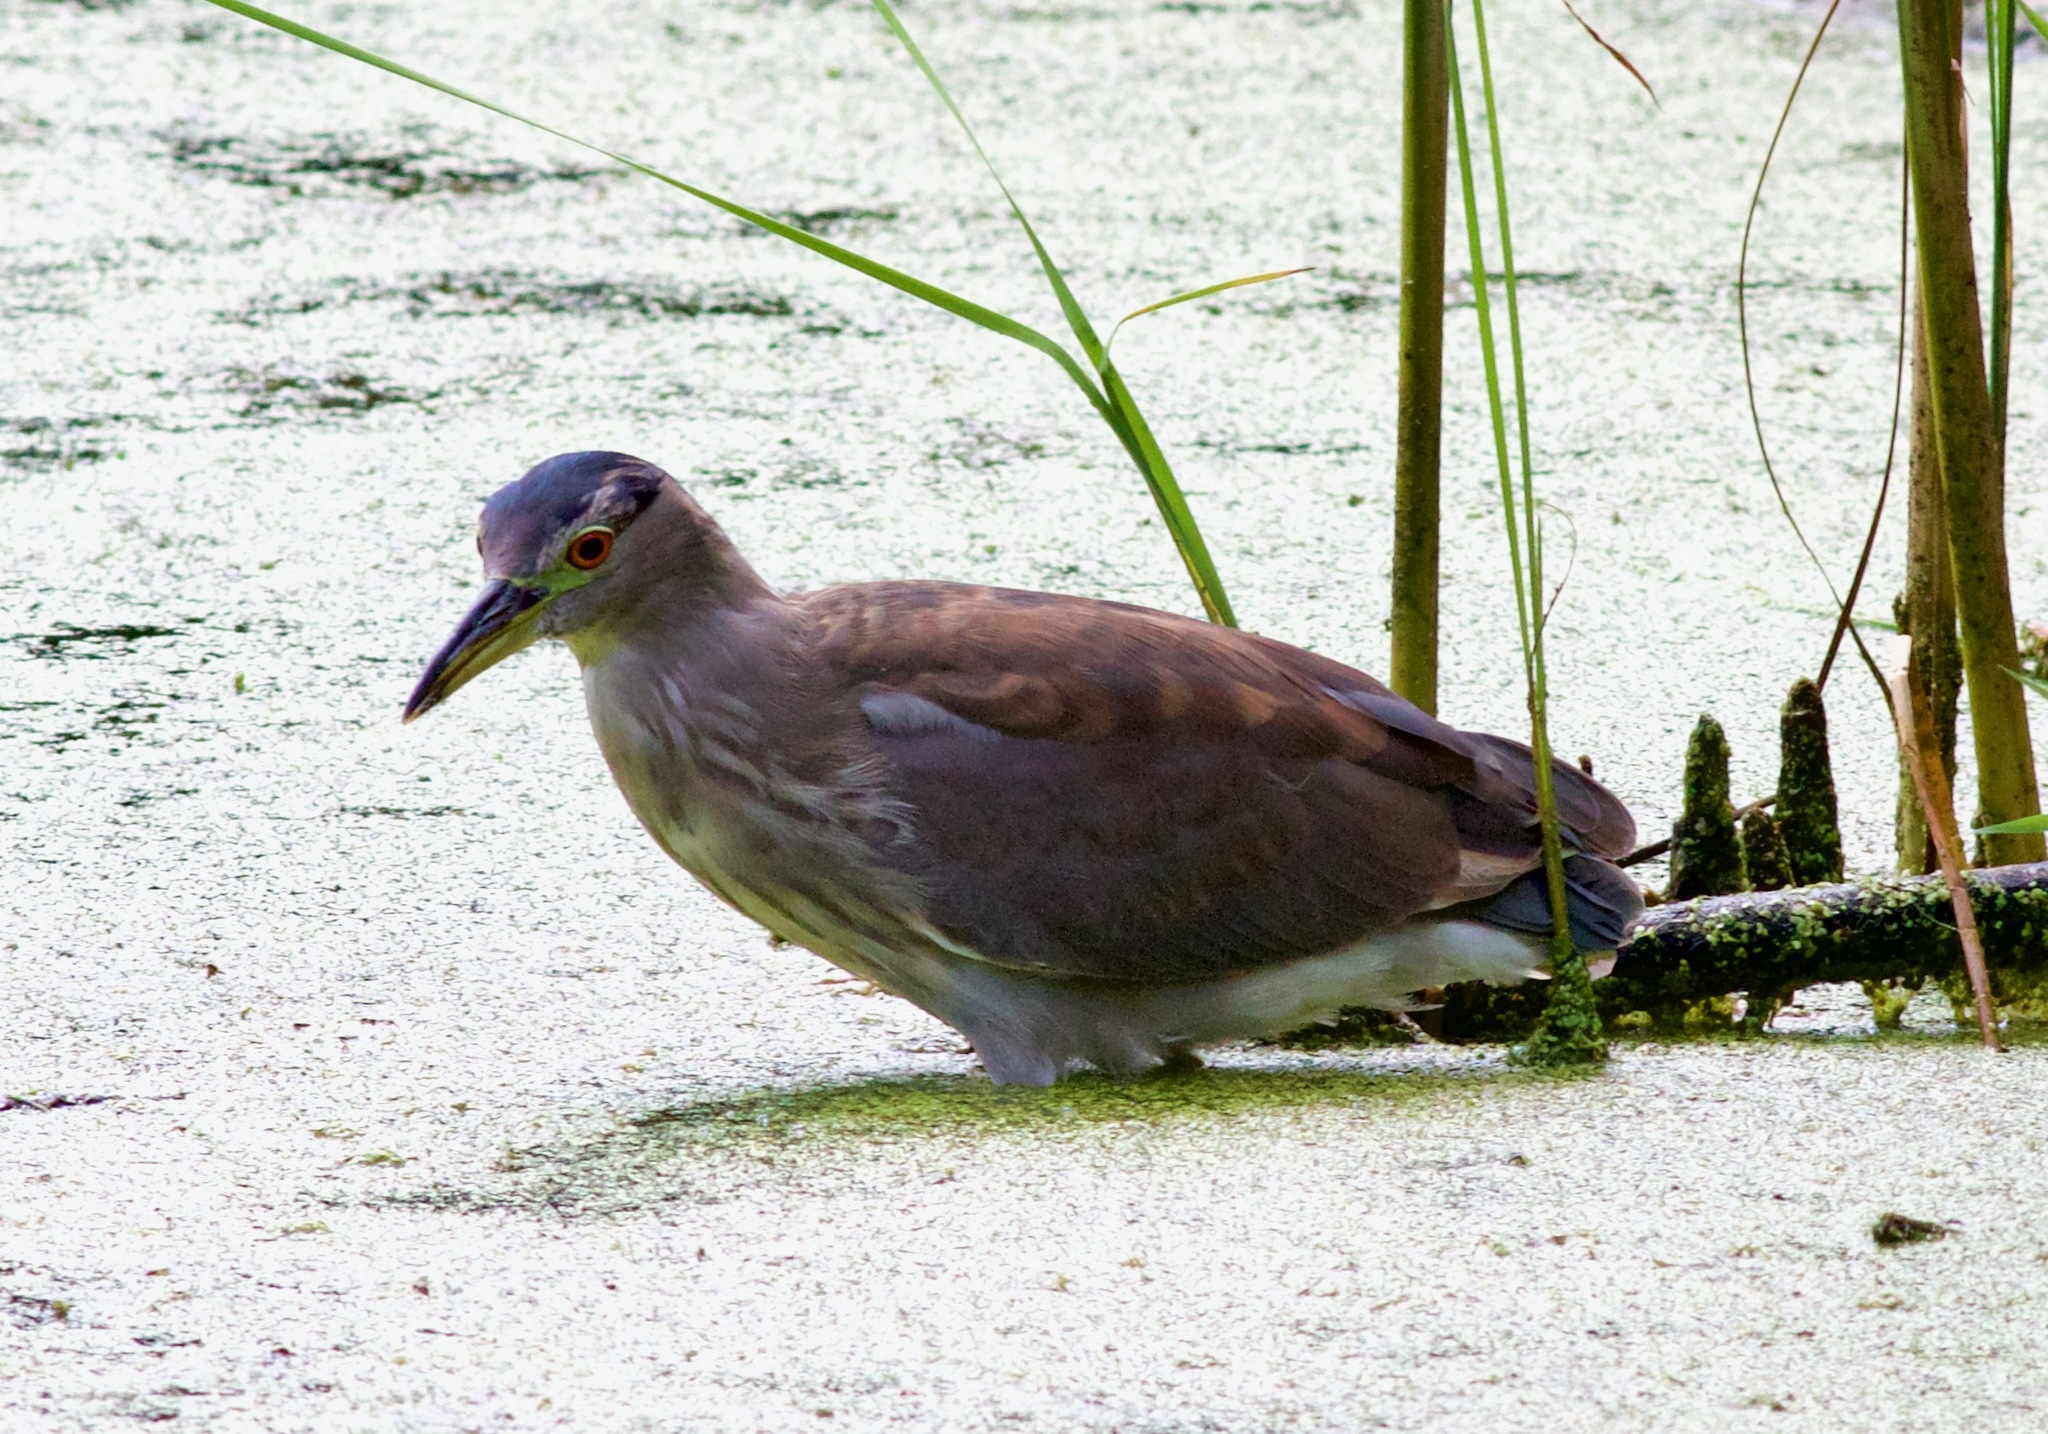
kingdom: Animalia
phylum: Chordata
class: Aves
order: Pelecaniformes
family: Ardeidae
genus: Nycticorax
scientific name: Nycticorax nycticorax
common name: Black-crowned night heron
